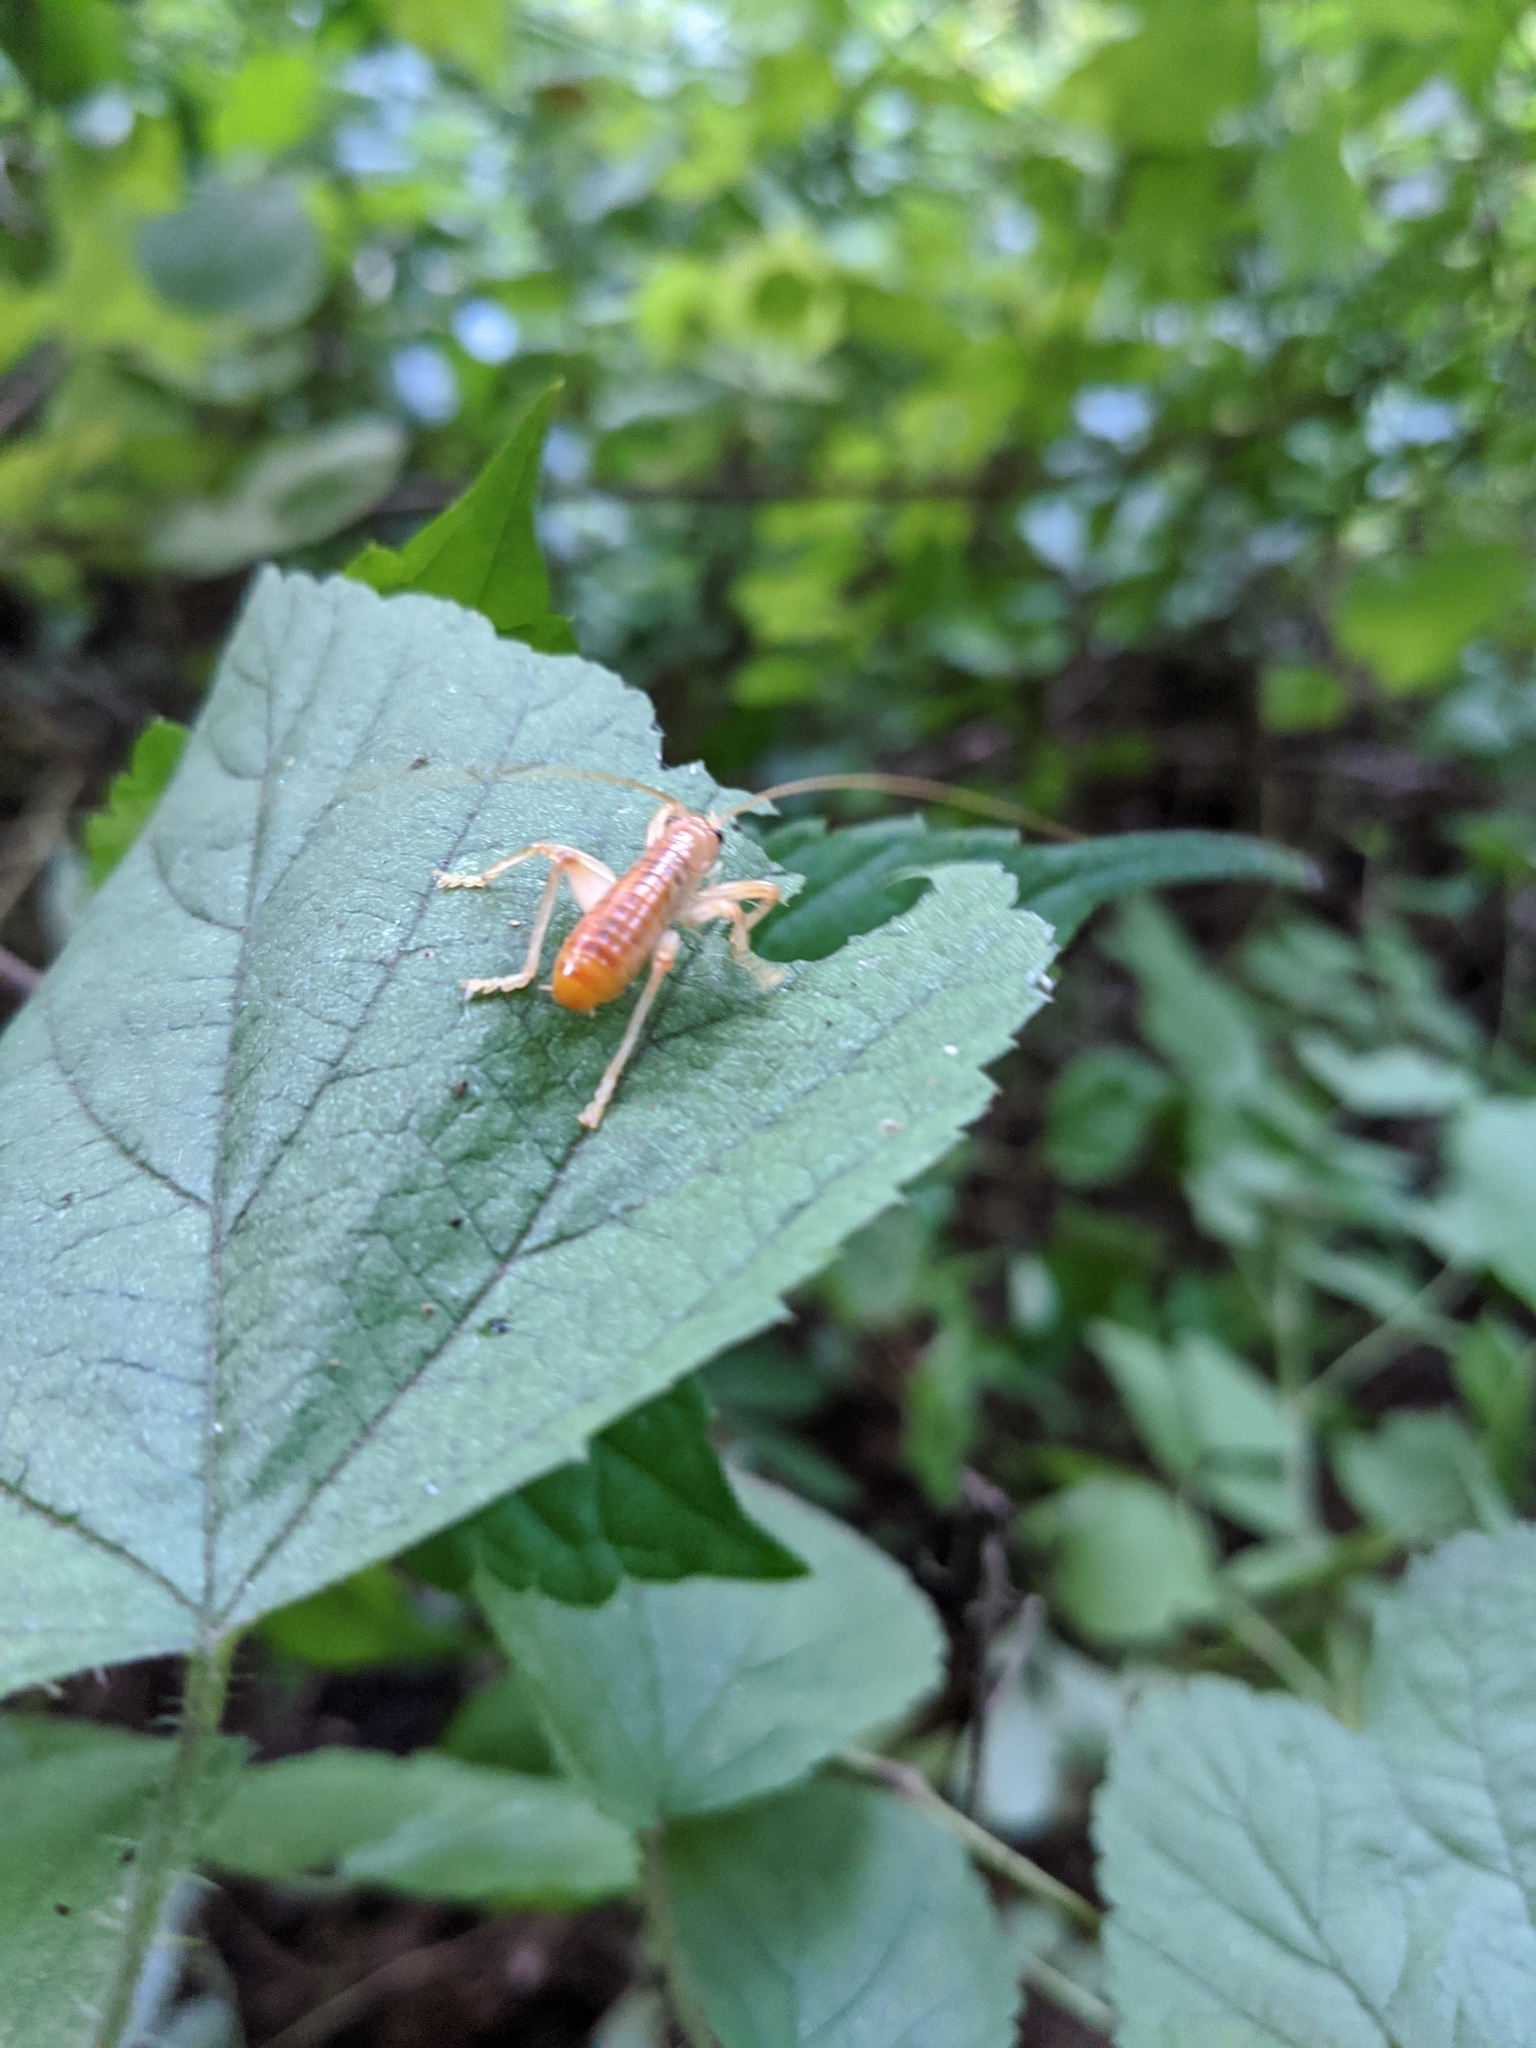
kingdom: Animalia
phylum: Arthropoda
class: Insecta
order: Orthoptera
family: Gryllacrididae
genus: Camptonotus
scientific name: Camptonotus carolinensis
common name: Carolina leaf-roller
